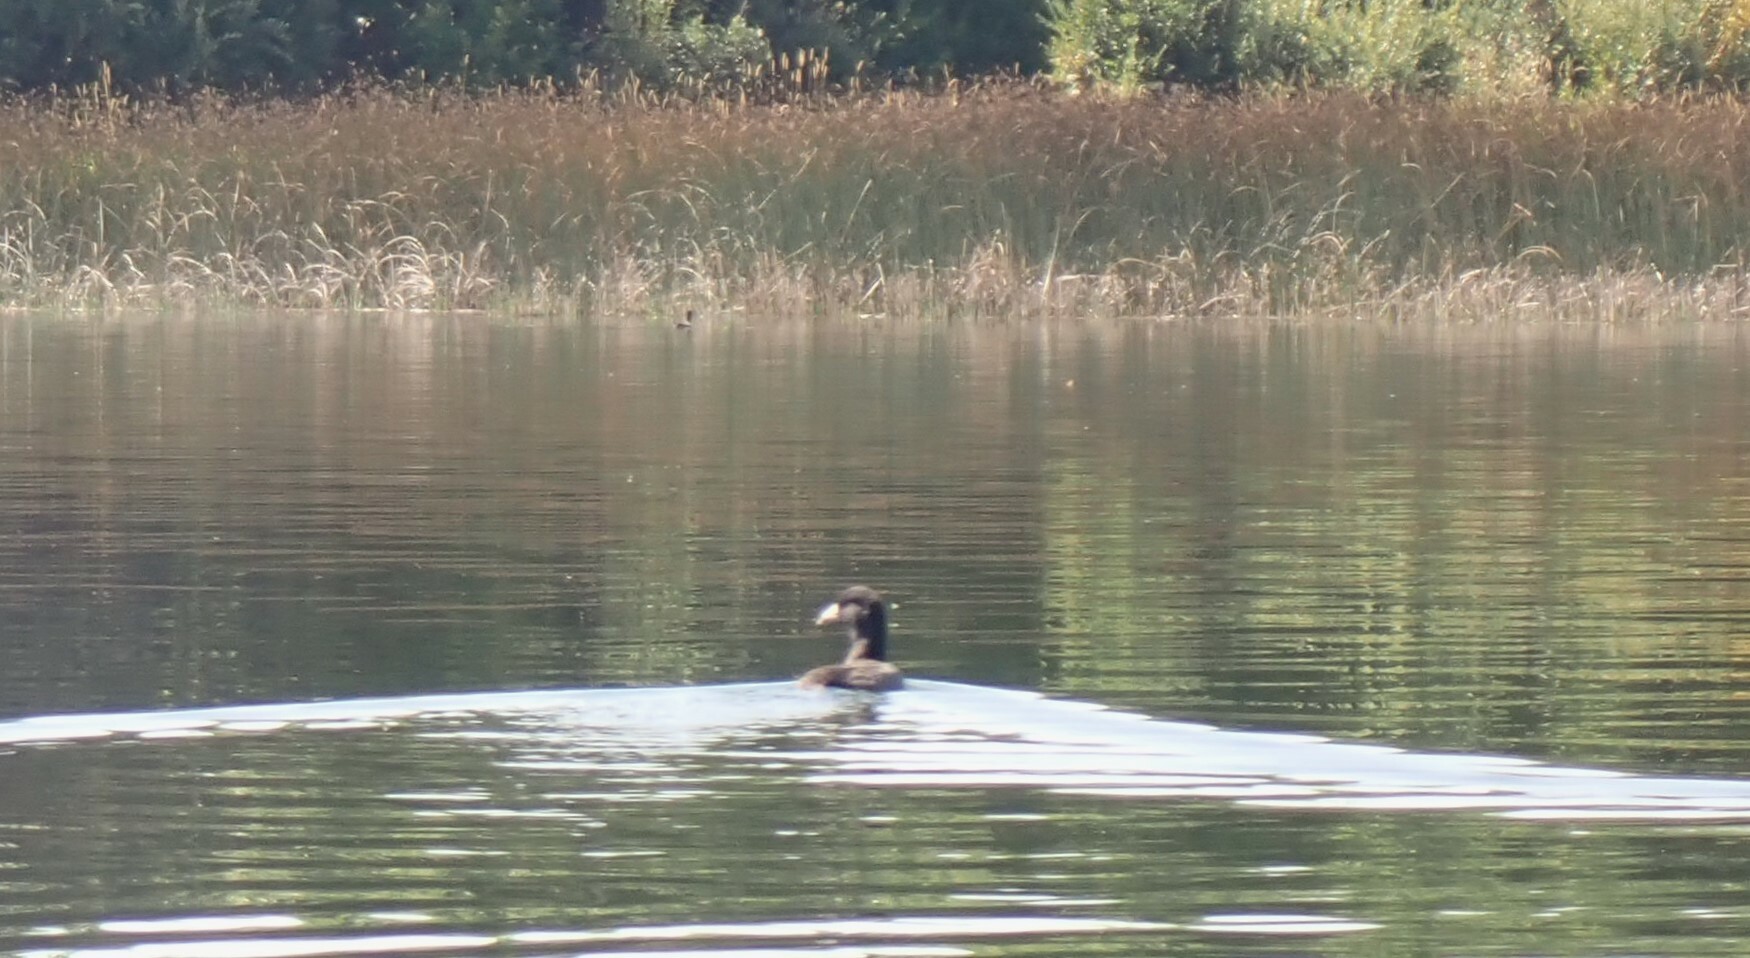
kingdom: Animalia
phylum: Chordata
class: Aves
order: Gruiformes
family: Rallidae
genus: Fulica
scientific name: Fulica americana
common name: American coot
